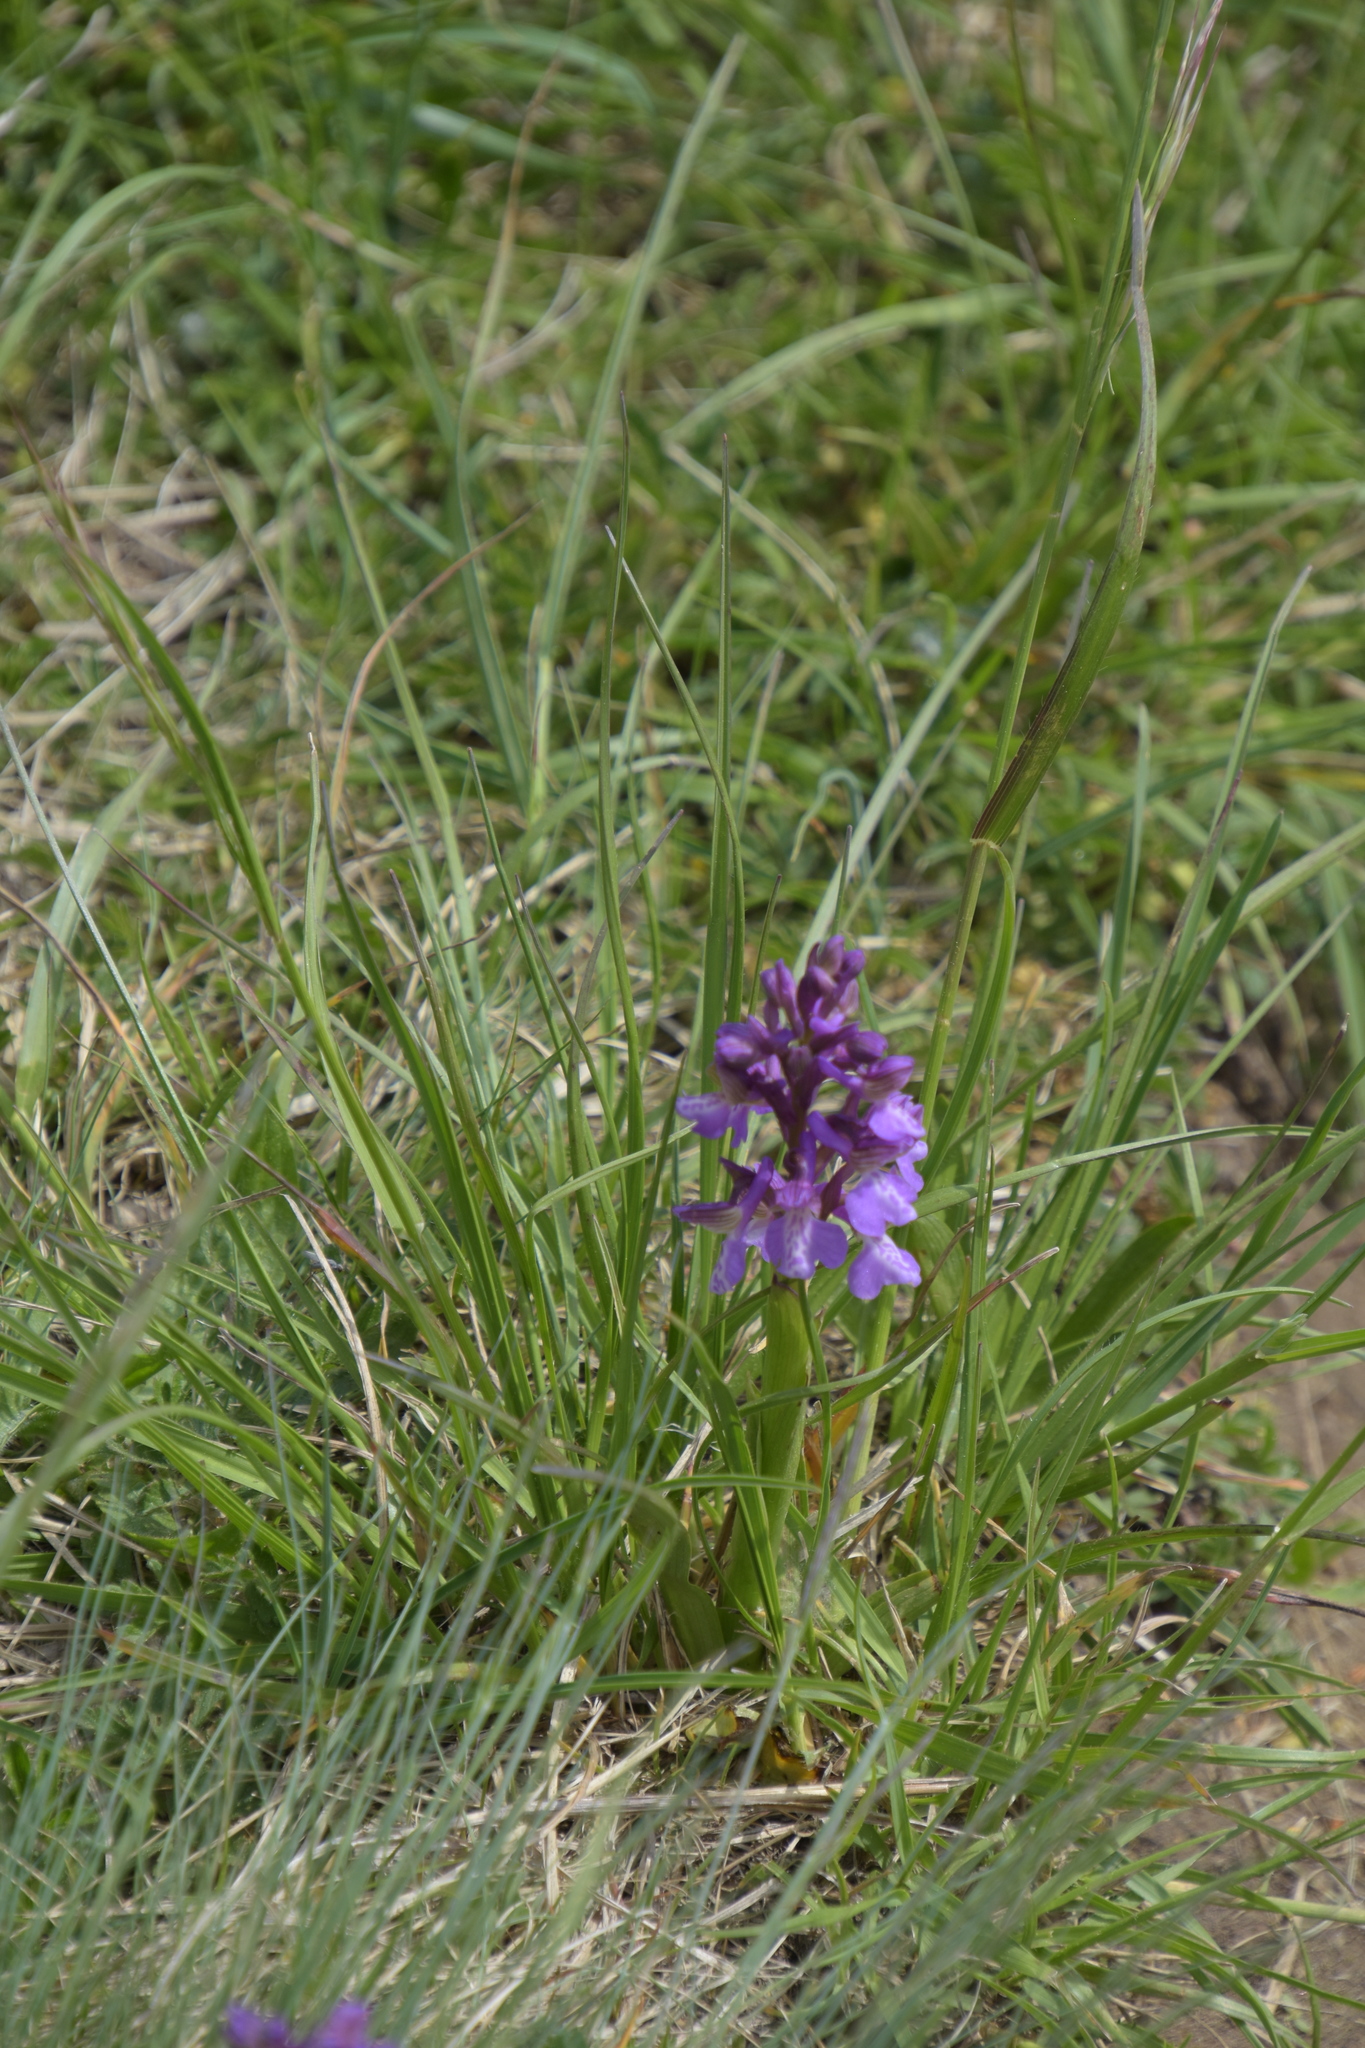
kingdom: Plantae
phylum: Tracheophyta
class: Liliopsida
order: Asparagales
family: Orchidaceae
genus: Anacamptis
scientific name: Anacamptis morio
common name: Green-winged orchid
